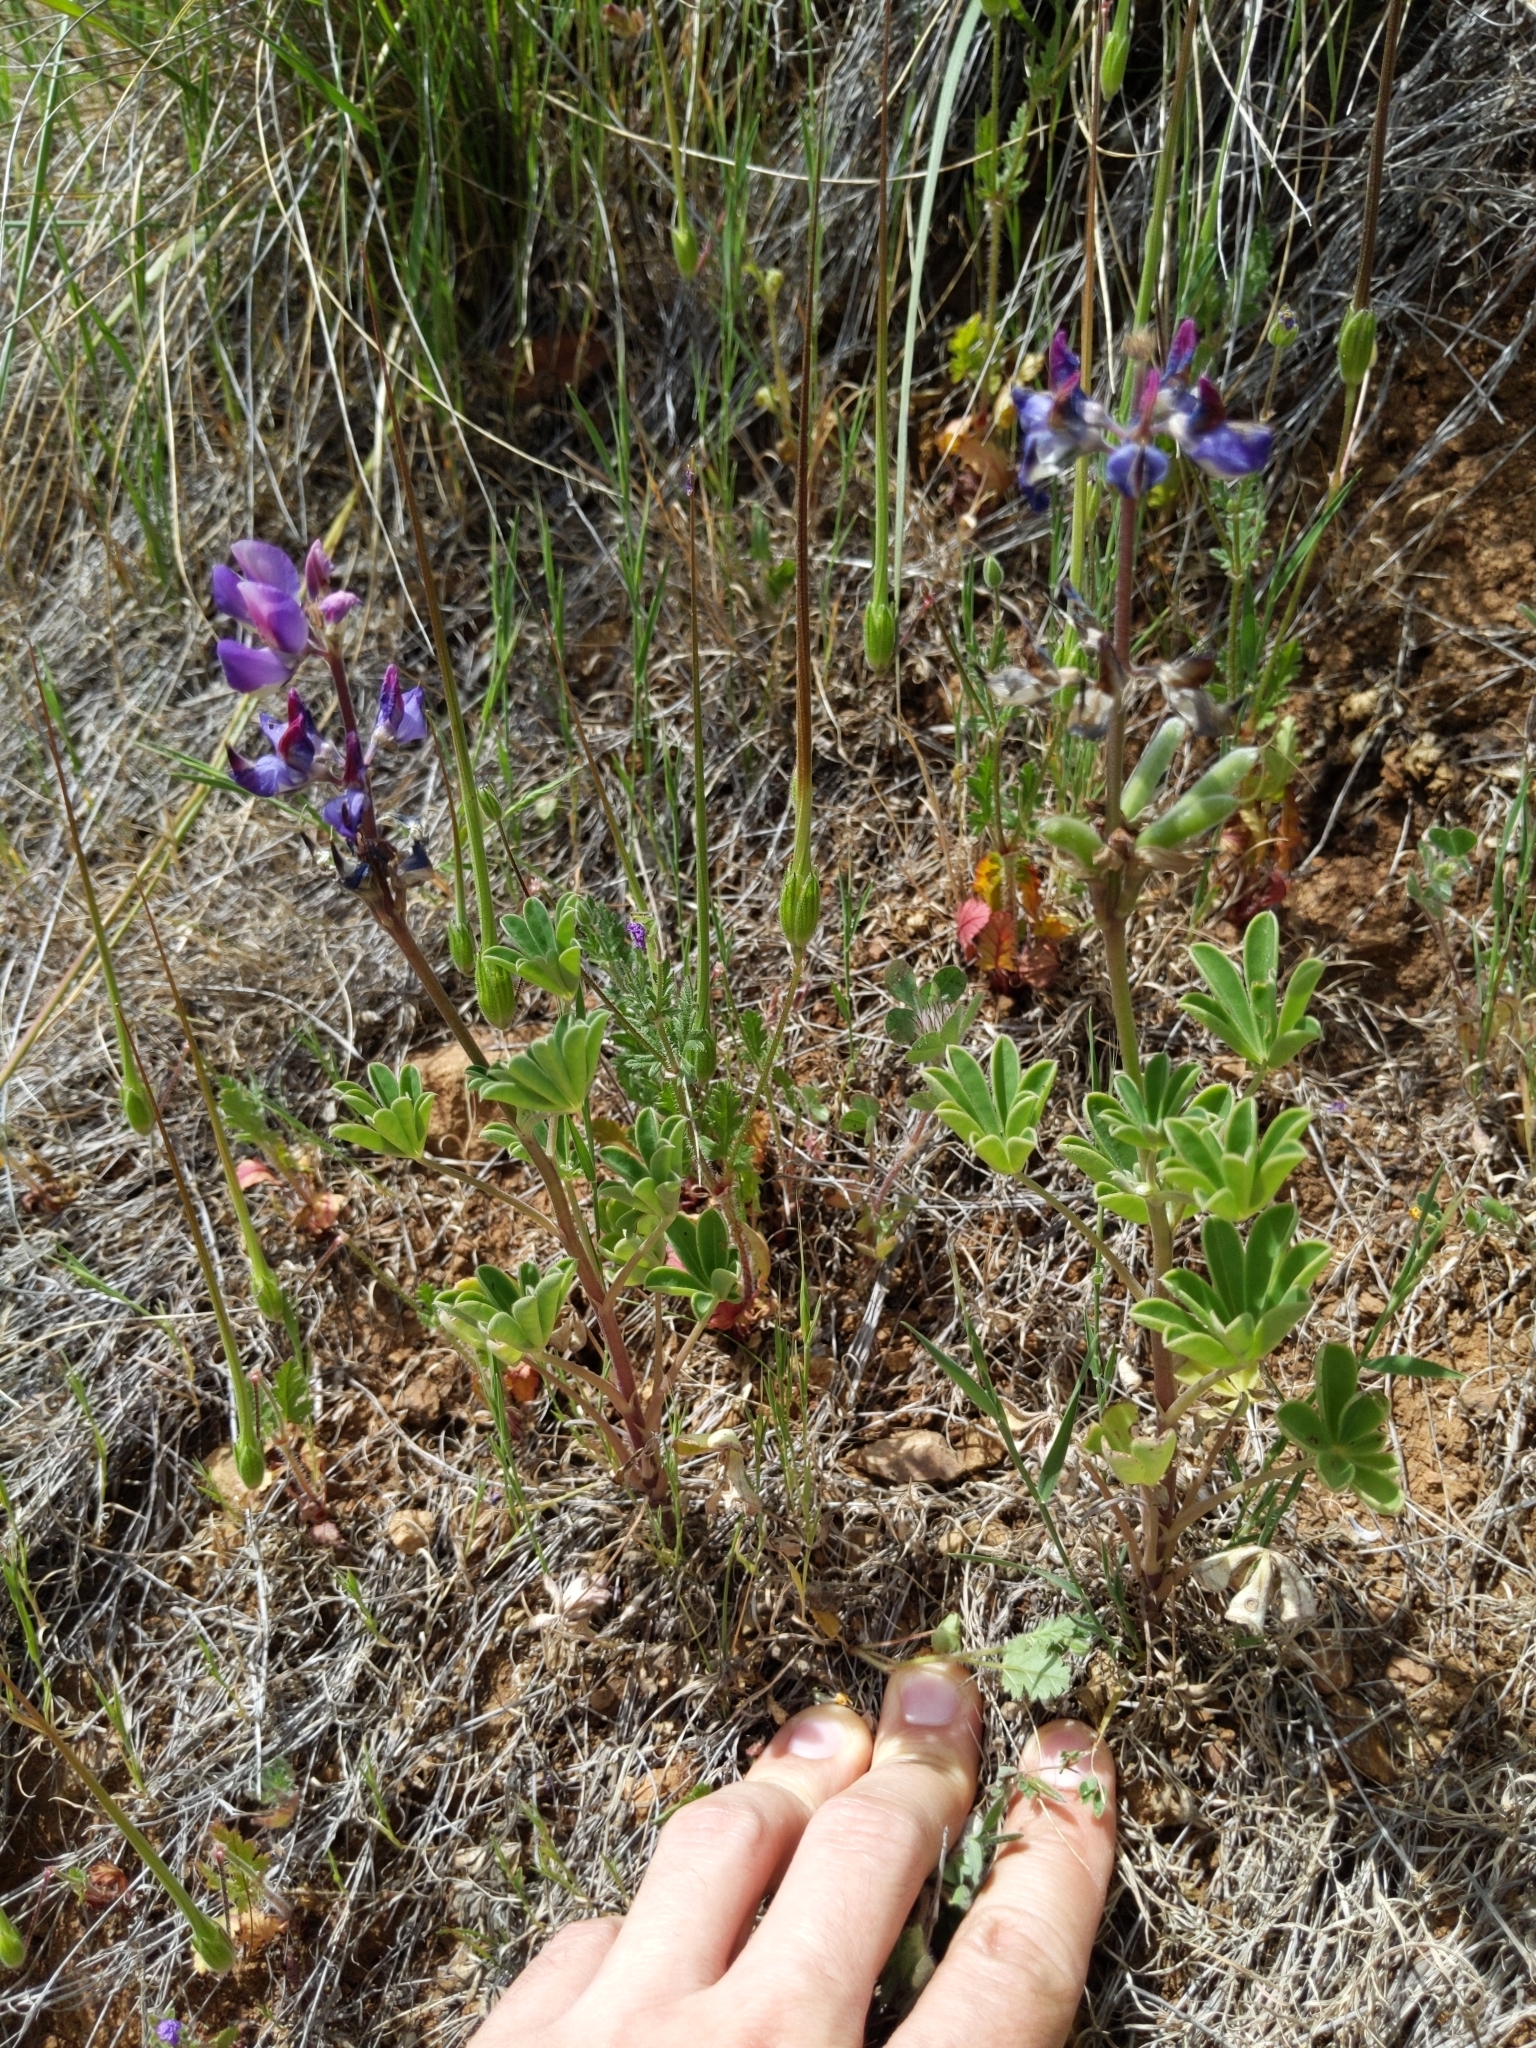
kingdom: Plantae
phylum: Tracheophyta
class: Magnoliopsida
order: Fabales
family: Fabaceae
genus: Lupinus
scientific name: Lupinus succulentus
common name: Arroyo lupine
